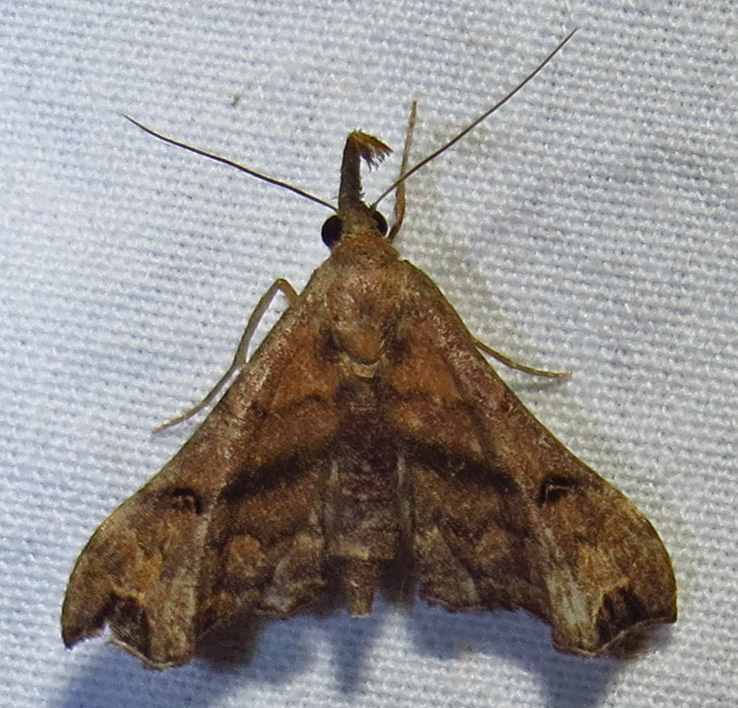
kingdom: Animalia
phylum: Arthropoda
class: Insecta
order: Lepidoptera
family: Erebidae
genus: Palthis
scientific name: Palthis asopialis
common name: Faint-spotted palthis moth
